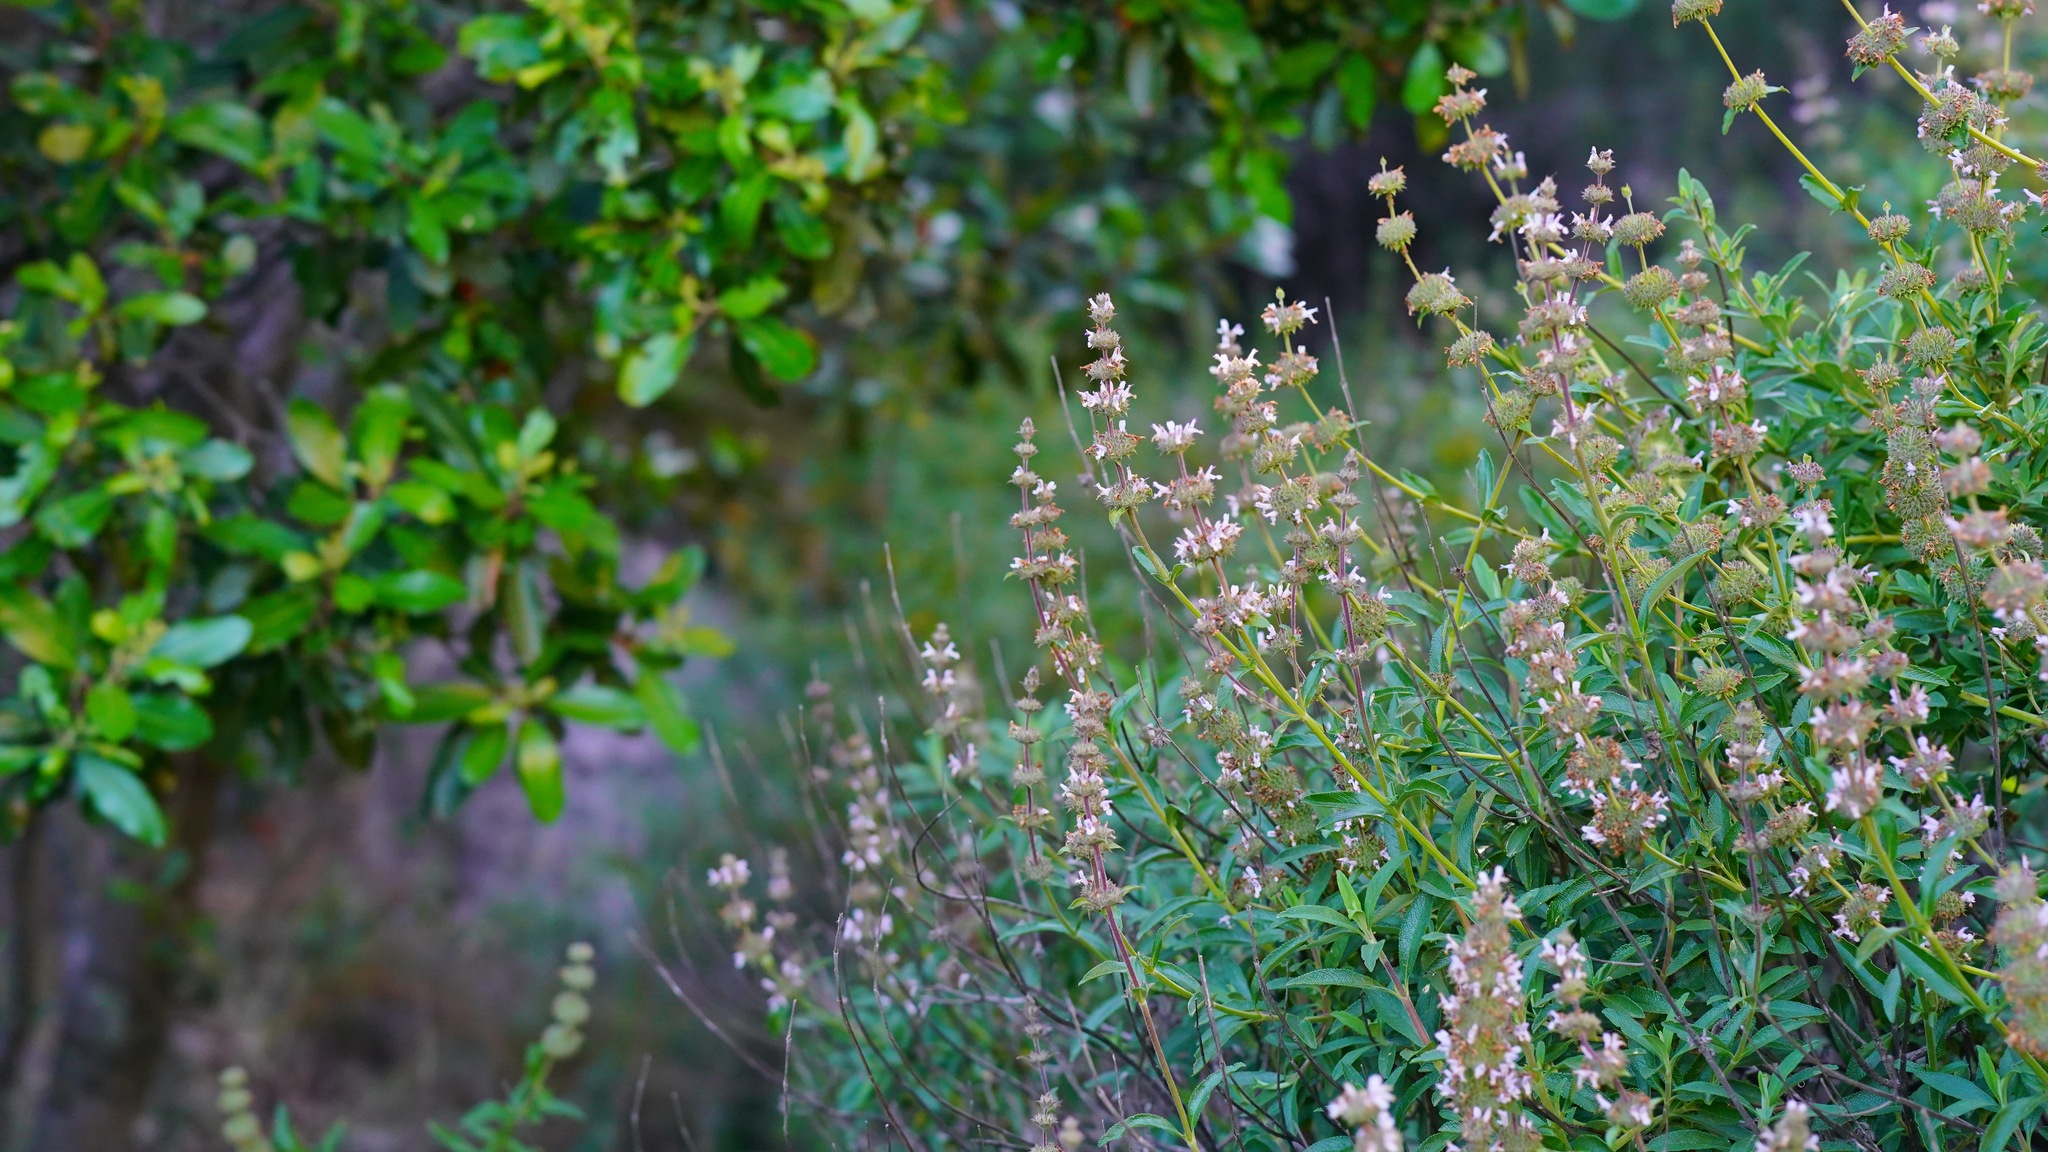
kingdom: Plantae
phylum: Tracheophyta
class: Magnoliopsida
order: Lamiales
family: Lamiaceae
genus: Salvia
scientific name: Salvia mellifera
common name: Black sage
